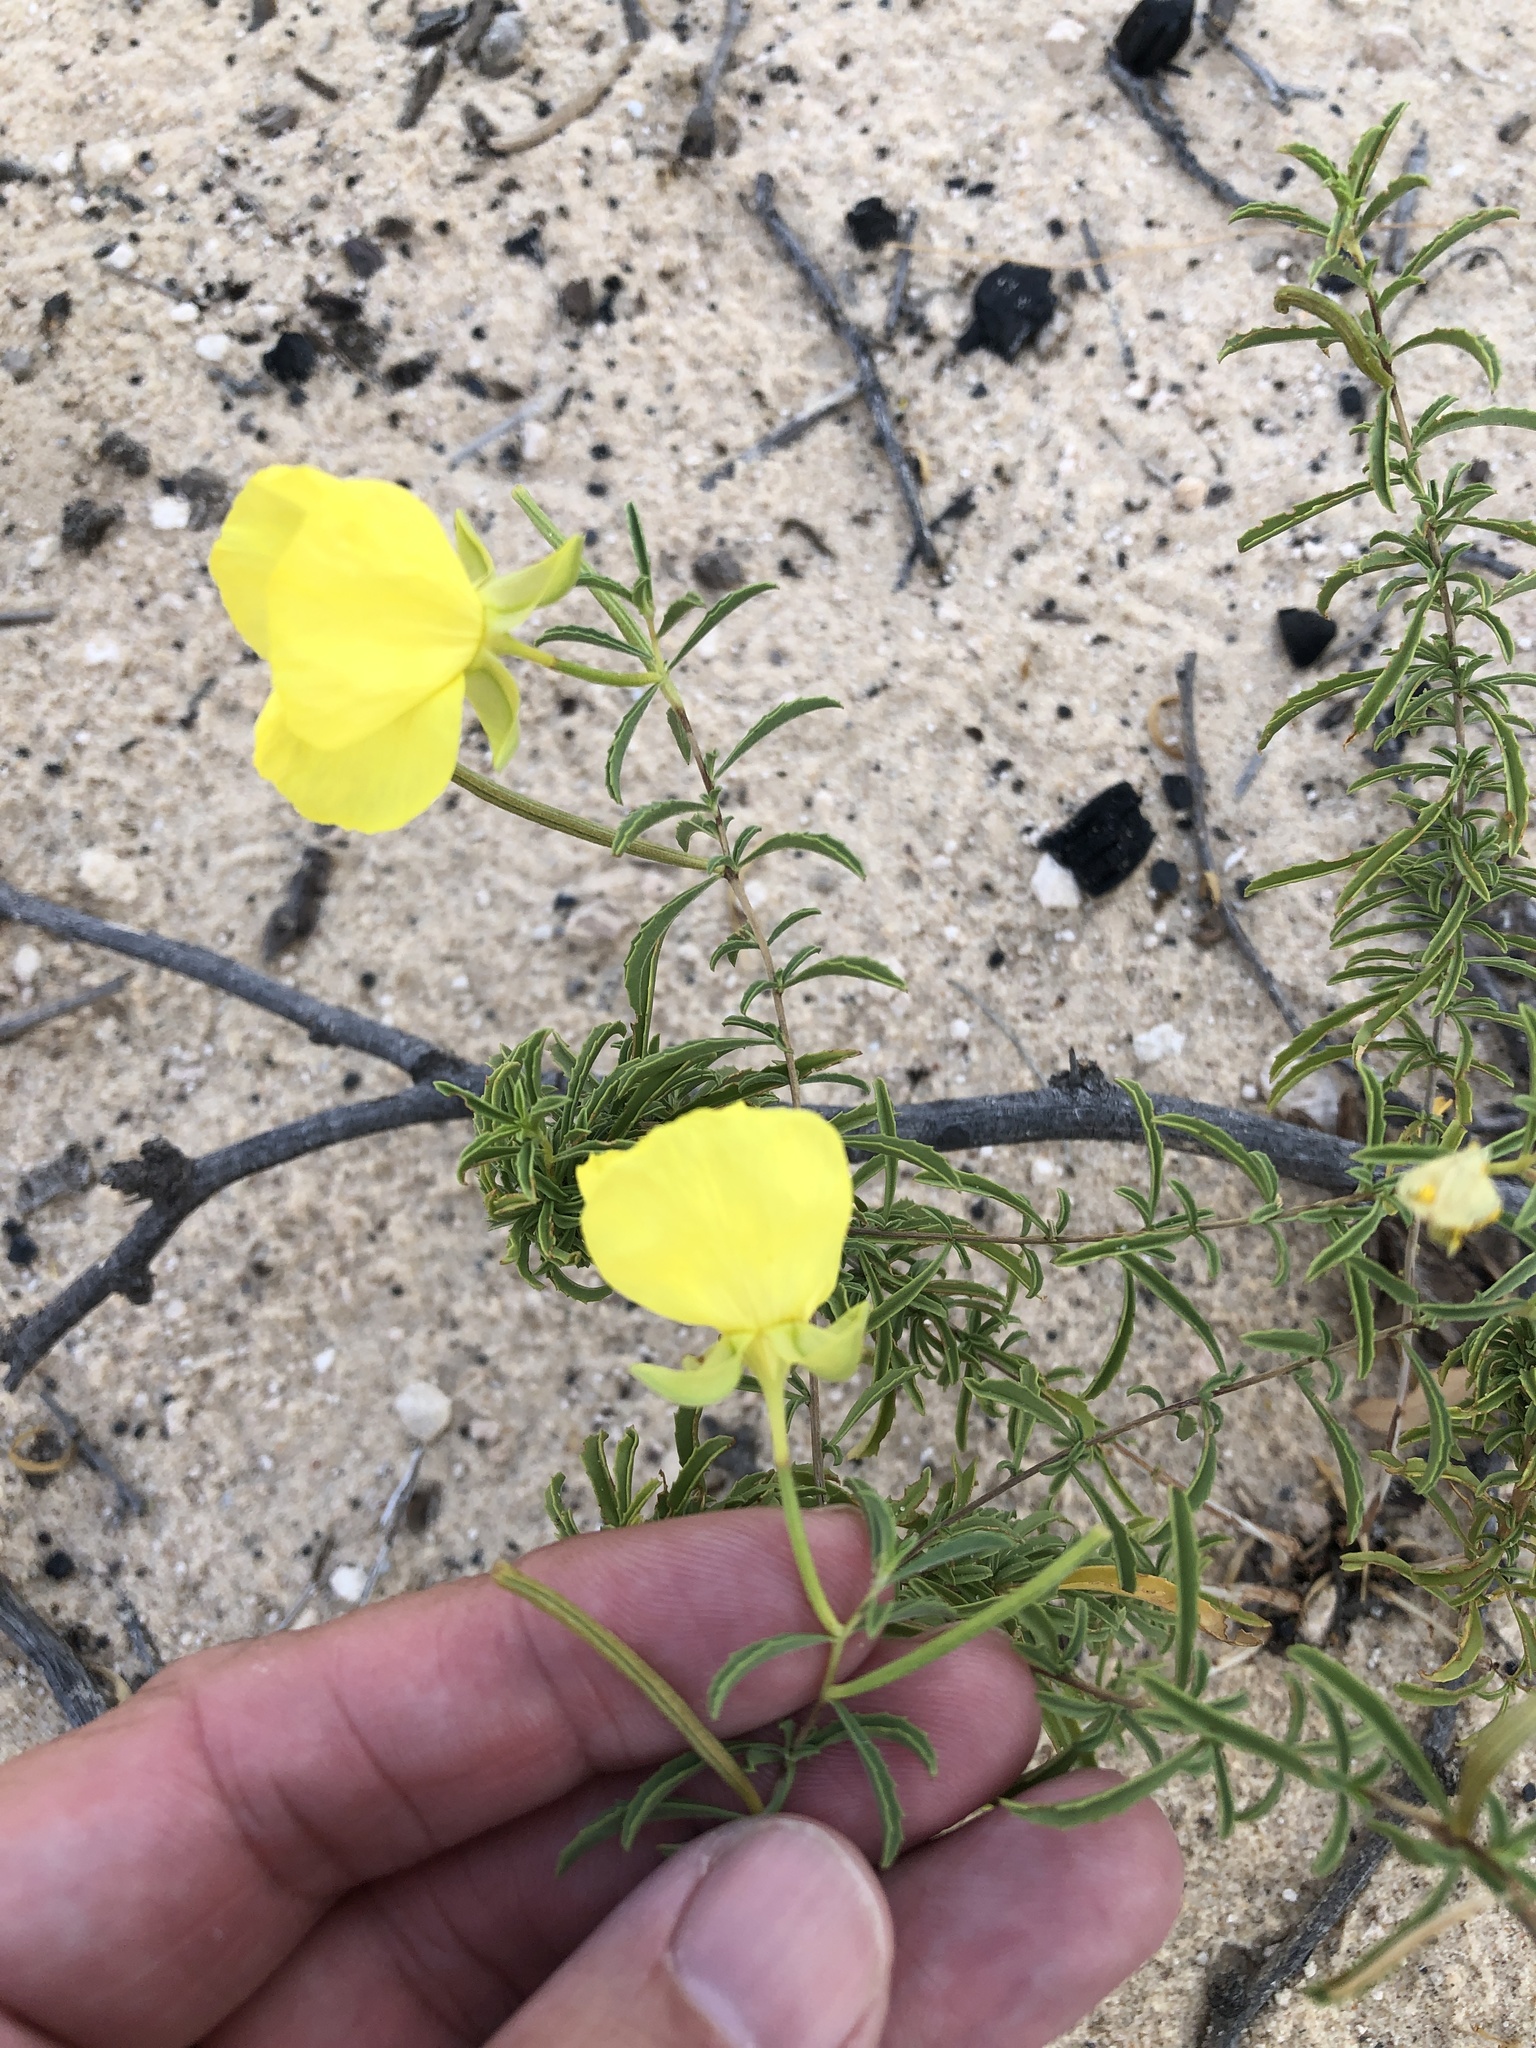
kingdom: Plantae
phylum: Tracheophyta
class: Magnoliopsida
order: Myrtales
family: Onagraceae
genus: Oenothera
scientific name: Oenothera
